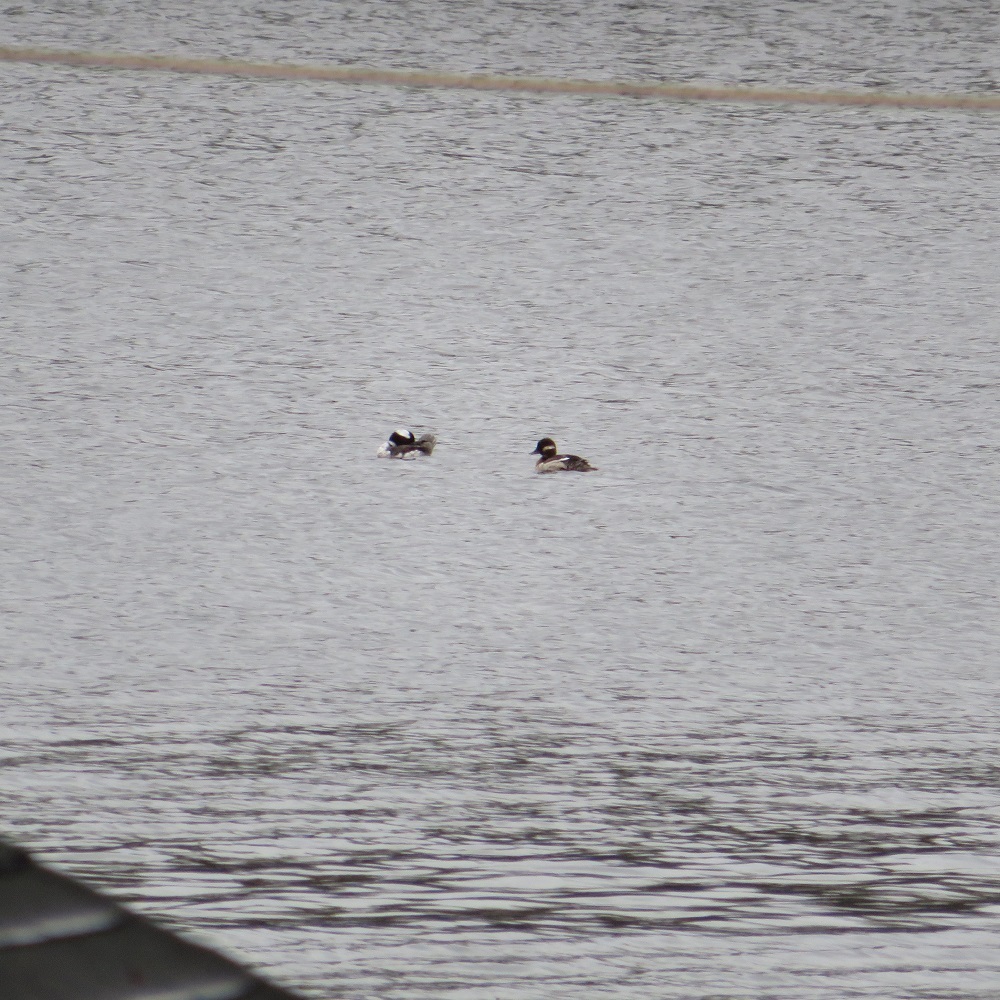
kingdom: Animalia
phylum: Chordata
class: Aves
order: Anseriformes
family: Anatidae
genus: Bucephala
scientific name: Bucephala albeola
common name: Bufflehead
